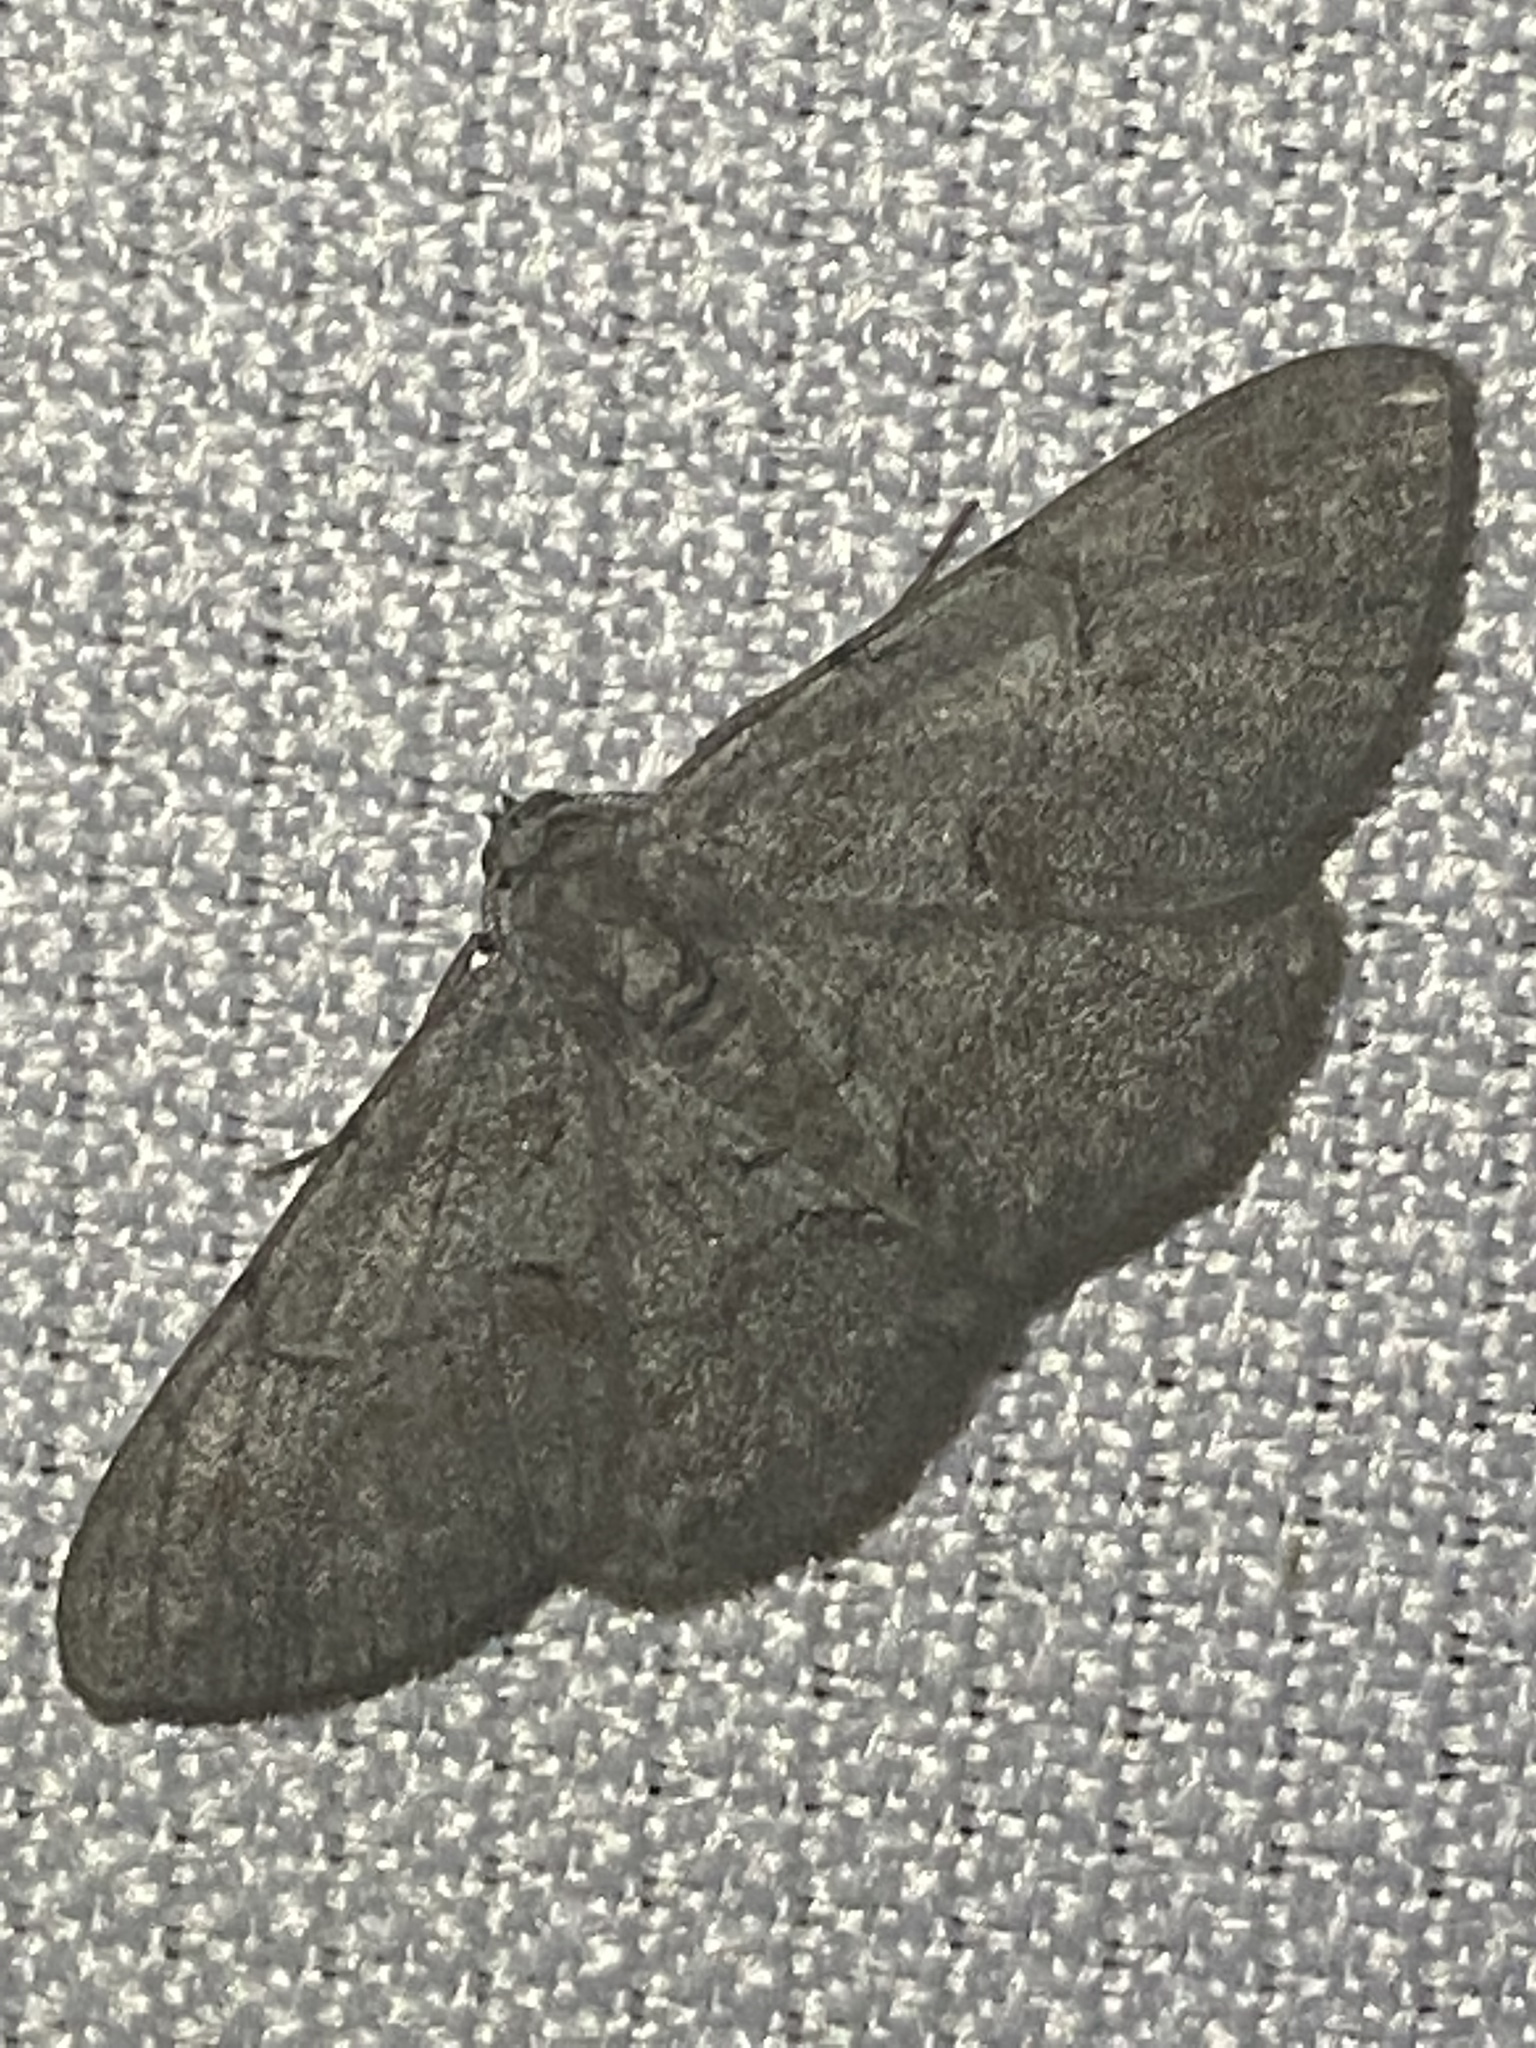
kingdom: Animalia
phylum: Arthropoda
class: Insecta
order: Lepidoptera
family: Geometridae
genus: Iridopsis
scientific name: Iridopsis vellivolata
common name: Large purplish gray
